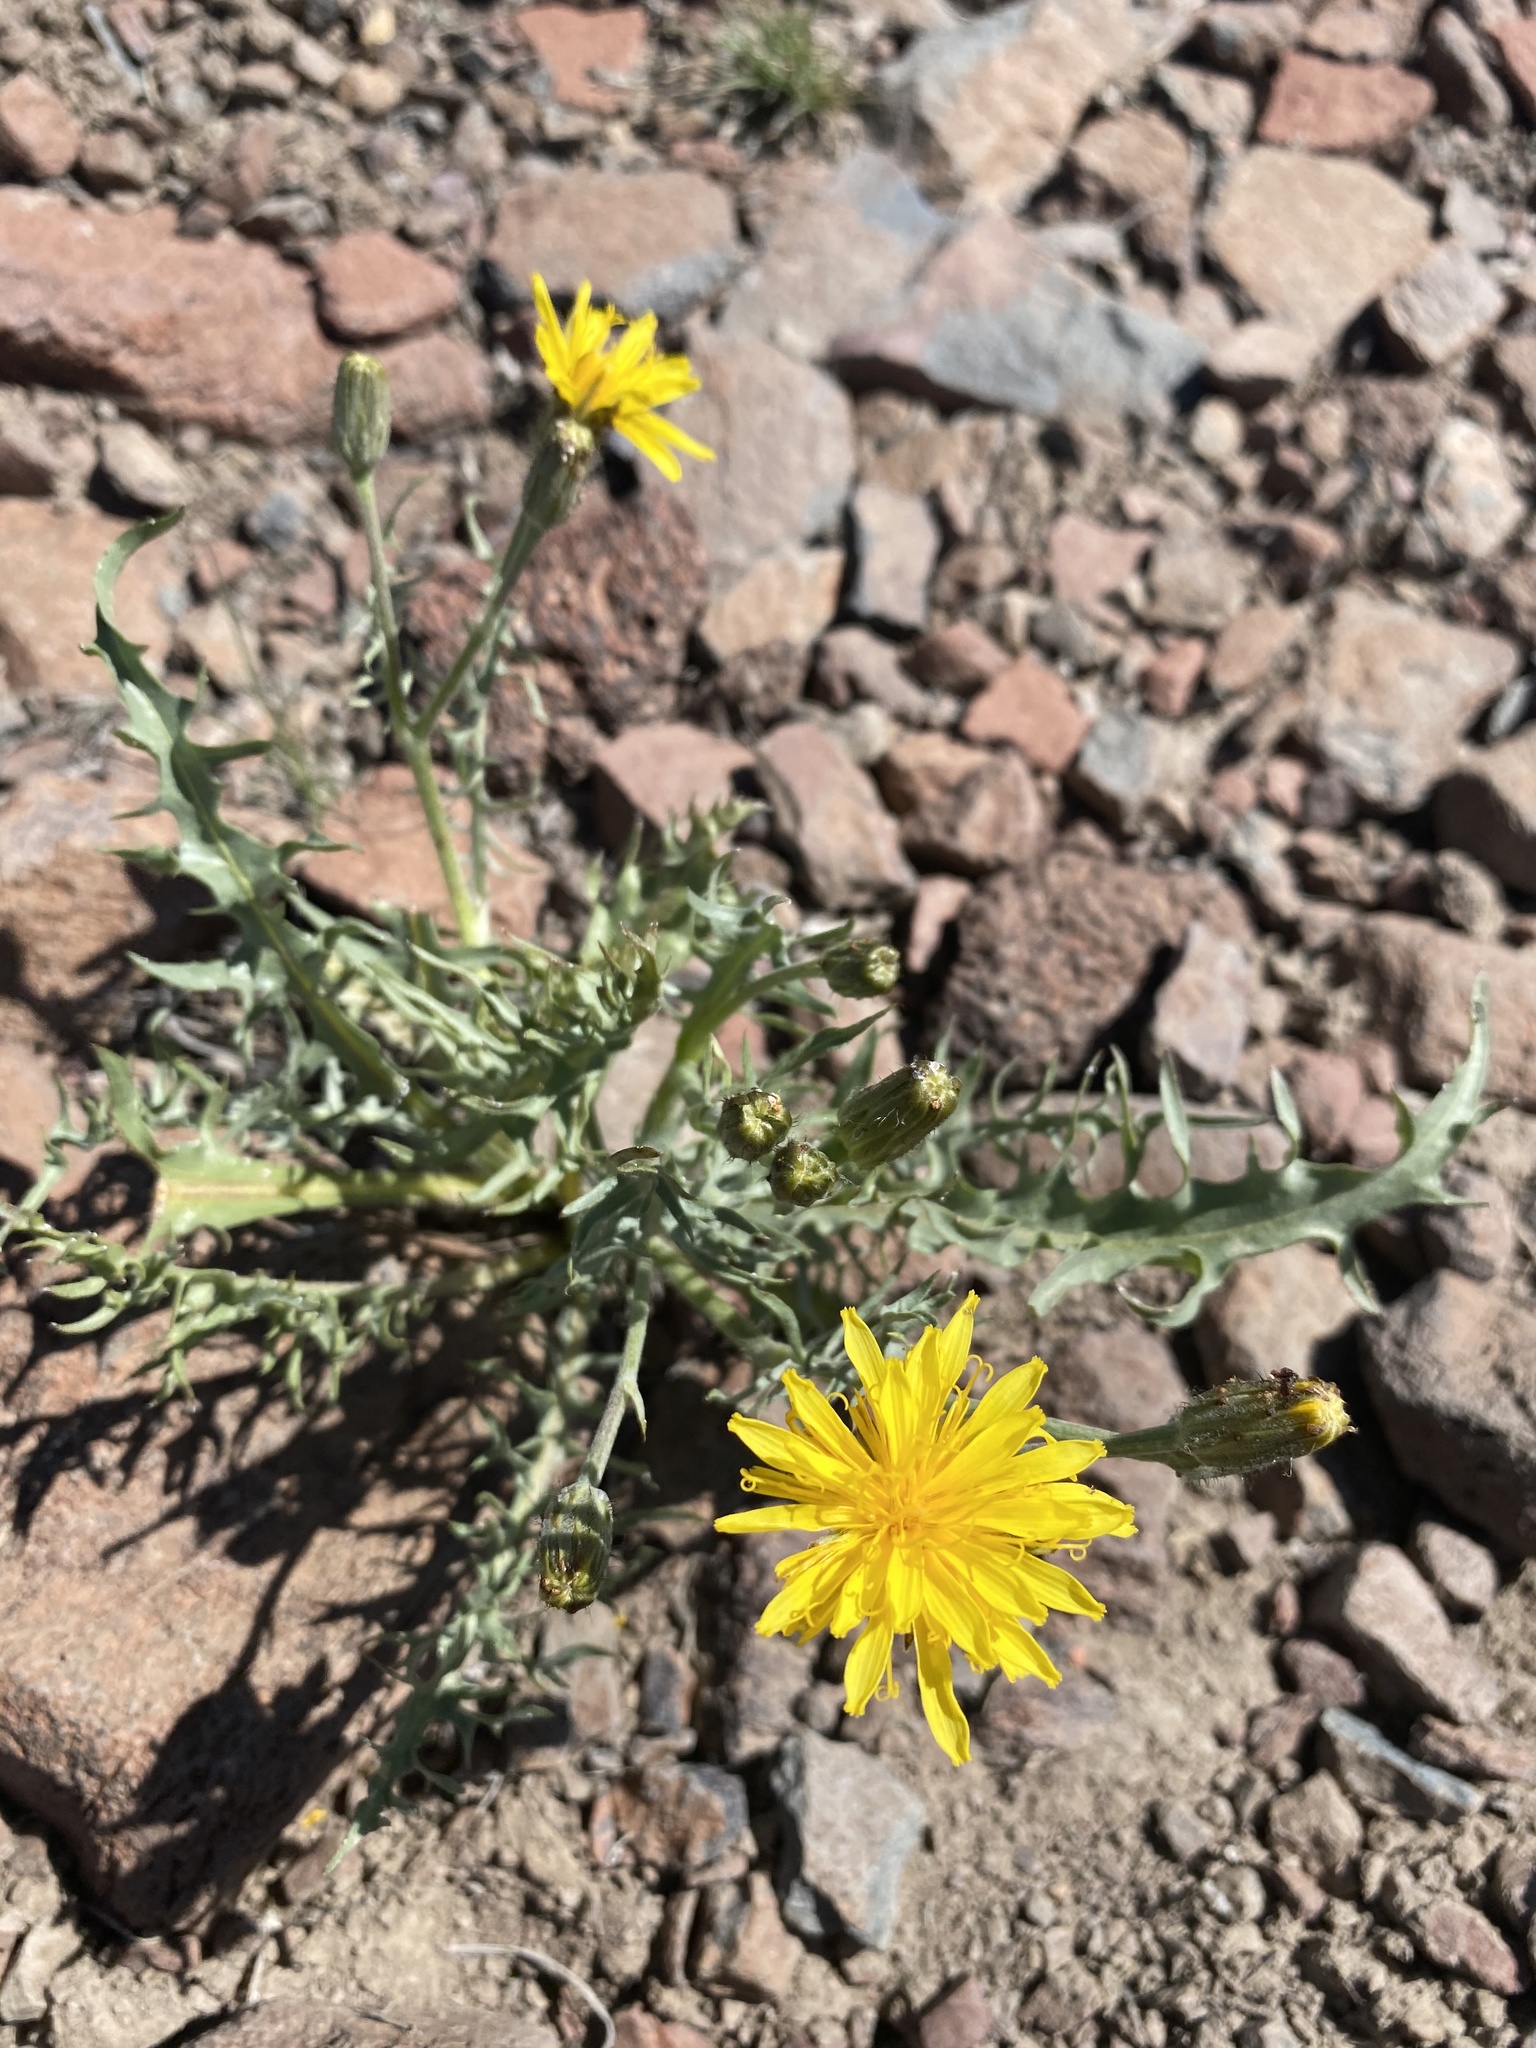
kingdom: Plantae
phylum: Tracheophyta
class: Magnoliopsida
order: Asterales
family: Asteraceae
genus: Crepis
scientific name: Crepis occidentalis
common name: Gray hawk's-beard
